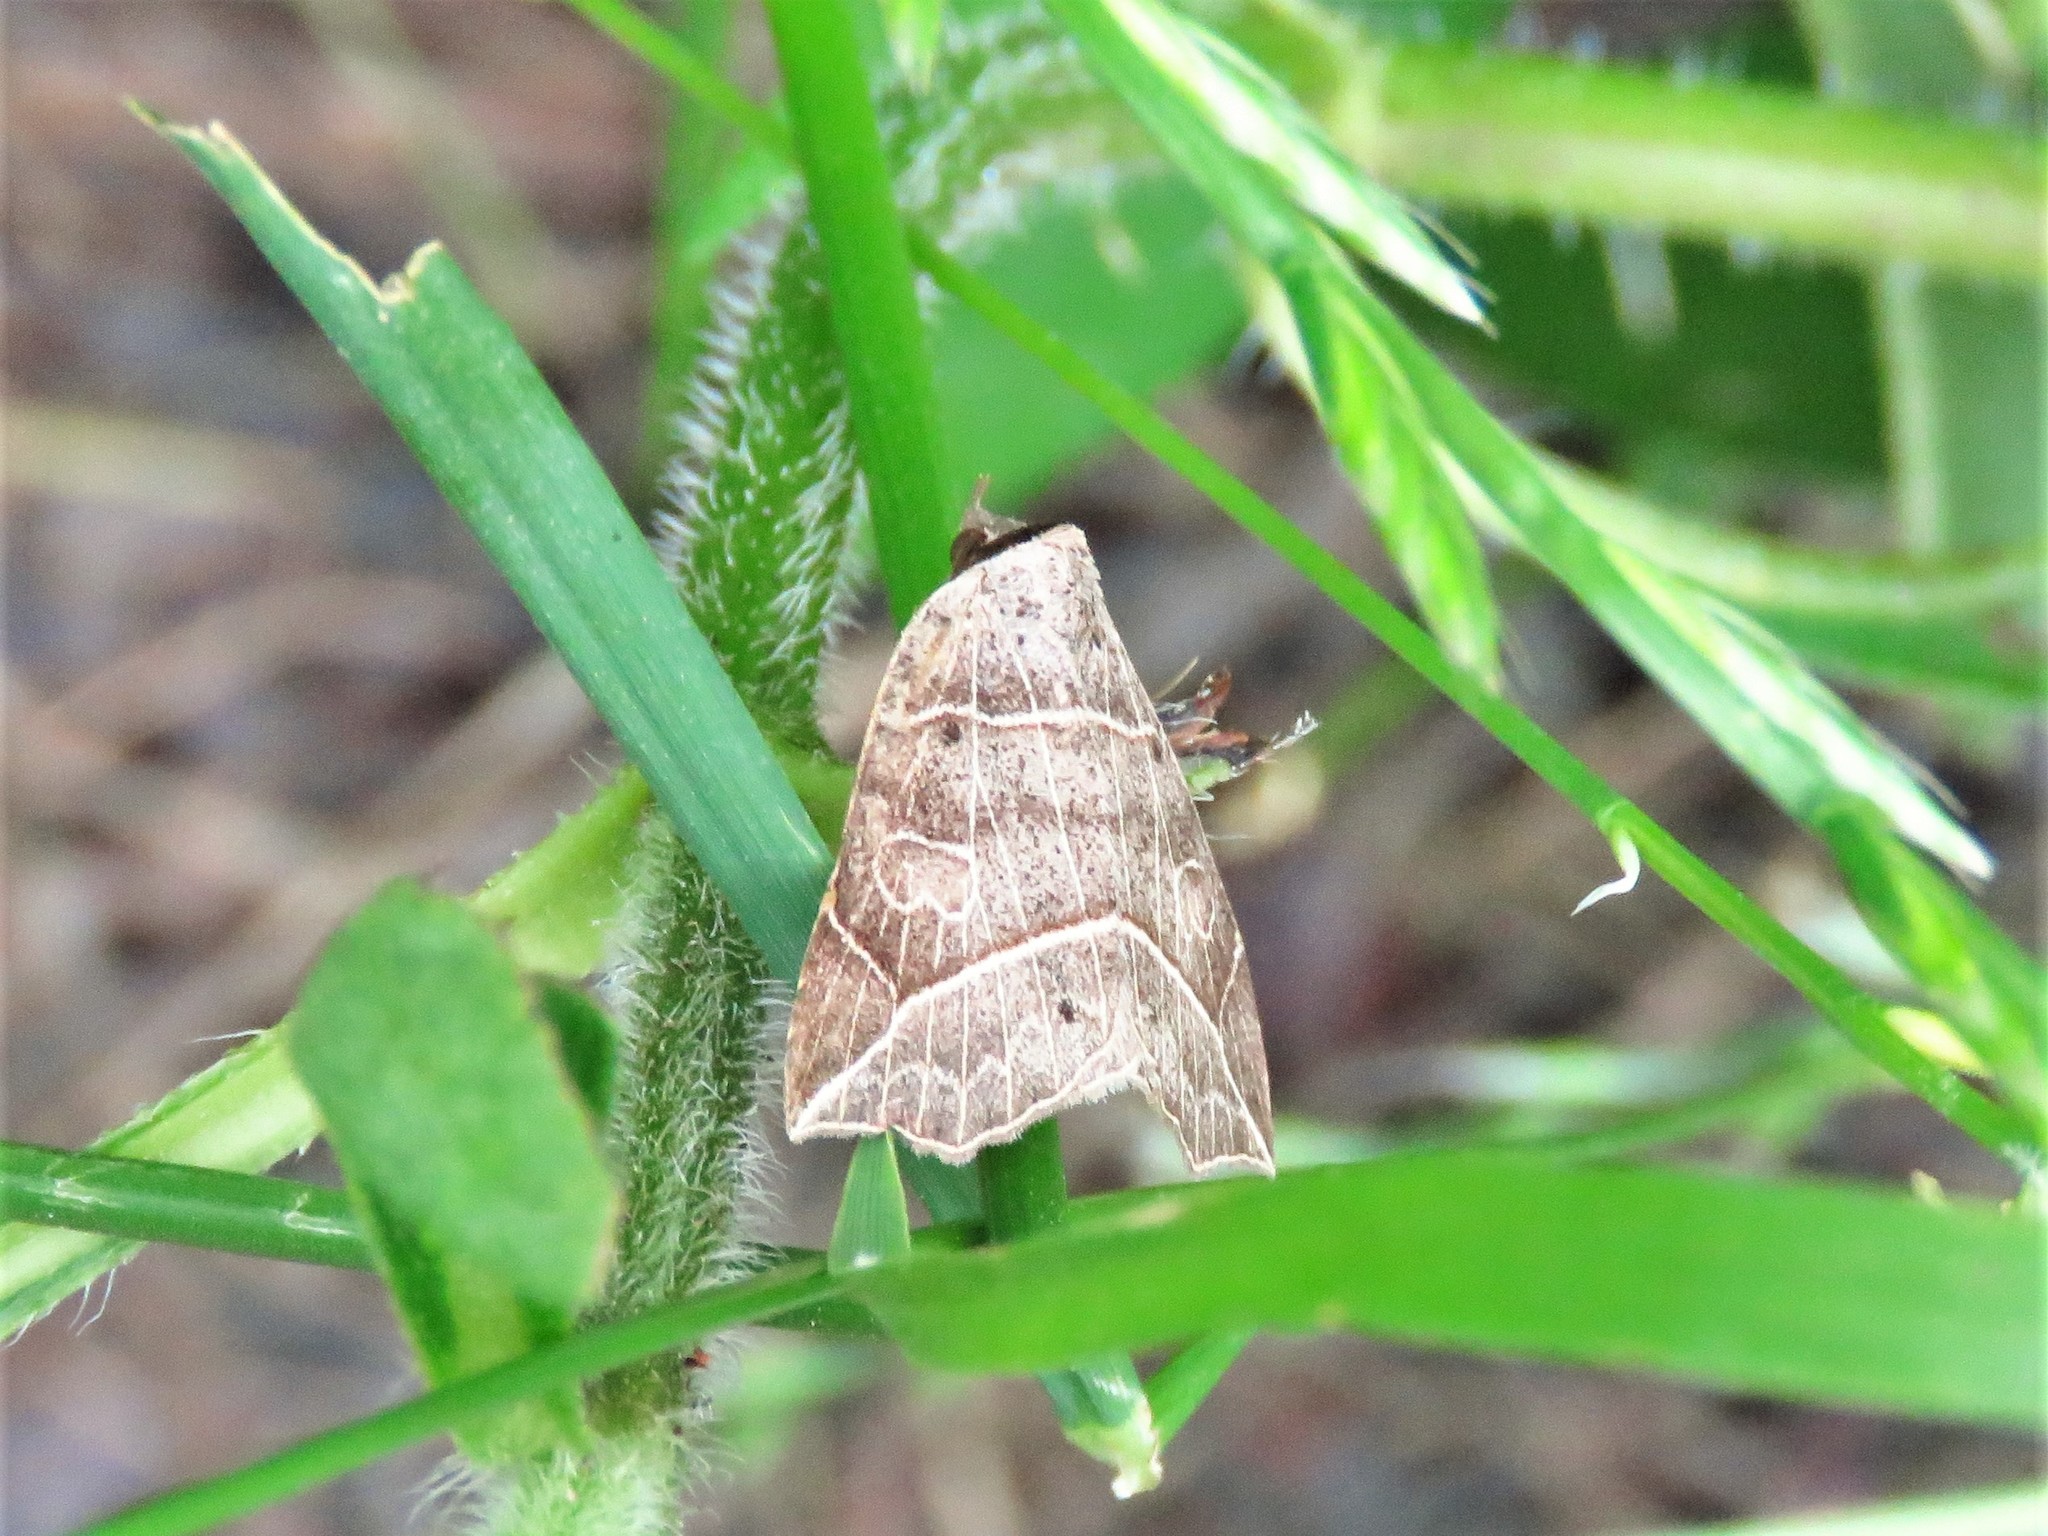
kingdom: Animalia
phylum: Arthropoda
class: Insecta
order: Lepidoptera
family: Erebidae
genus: Isogona
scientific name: Isogona tenuis
